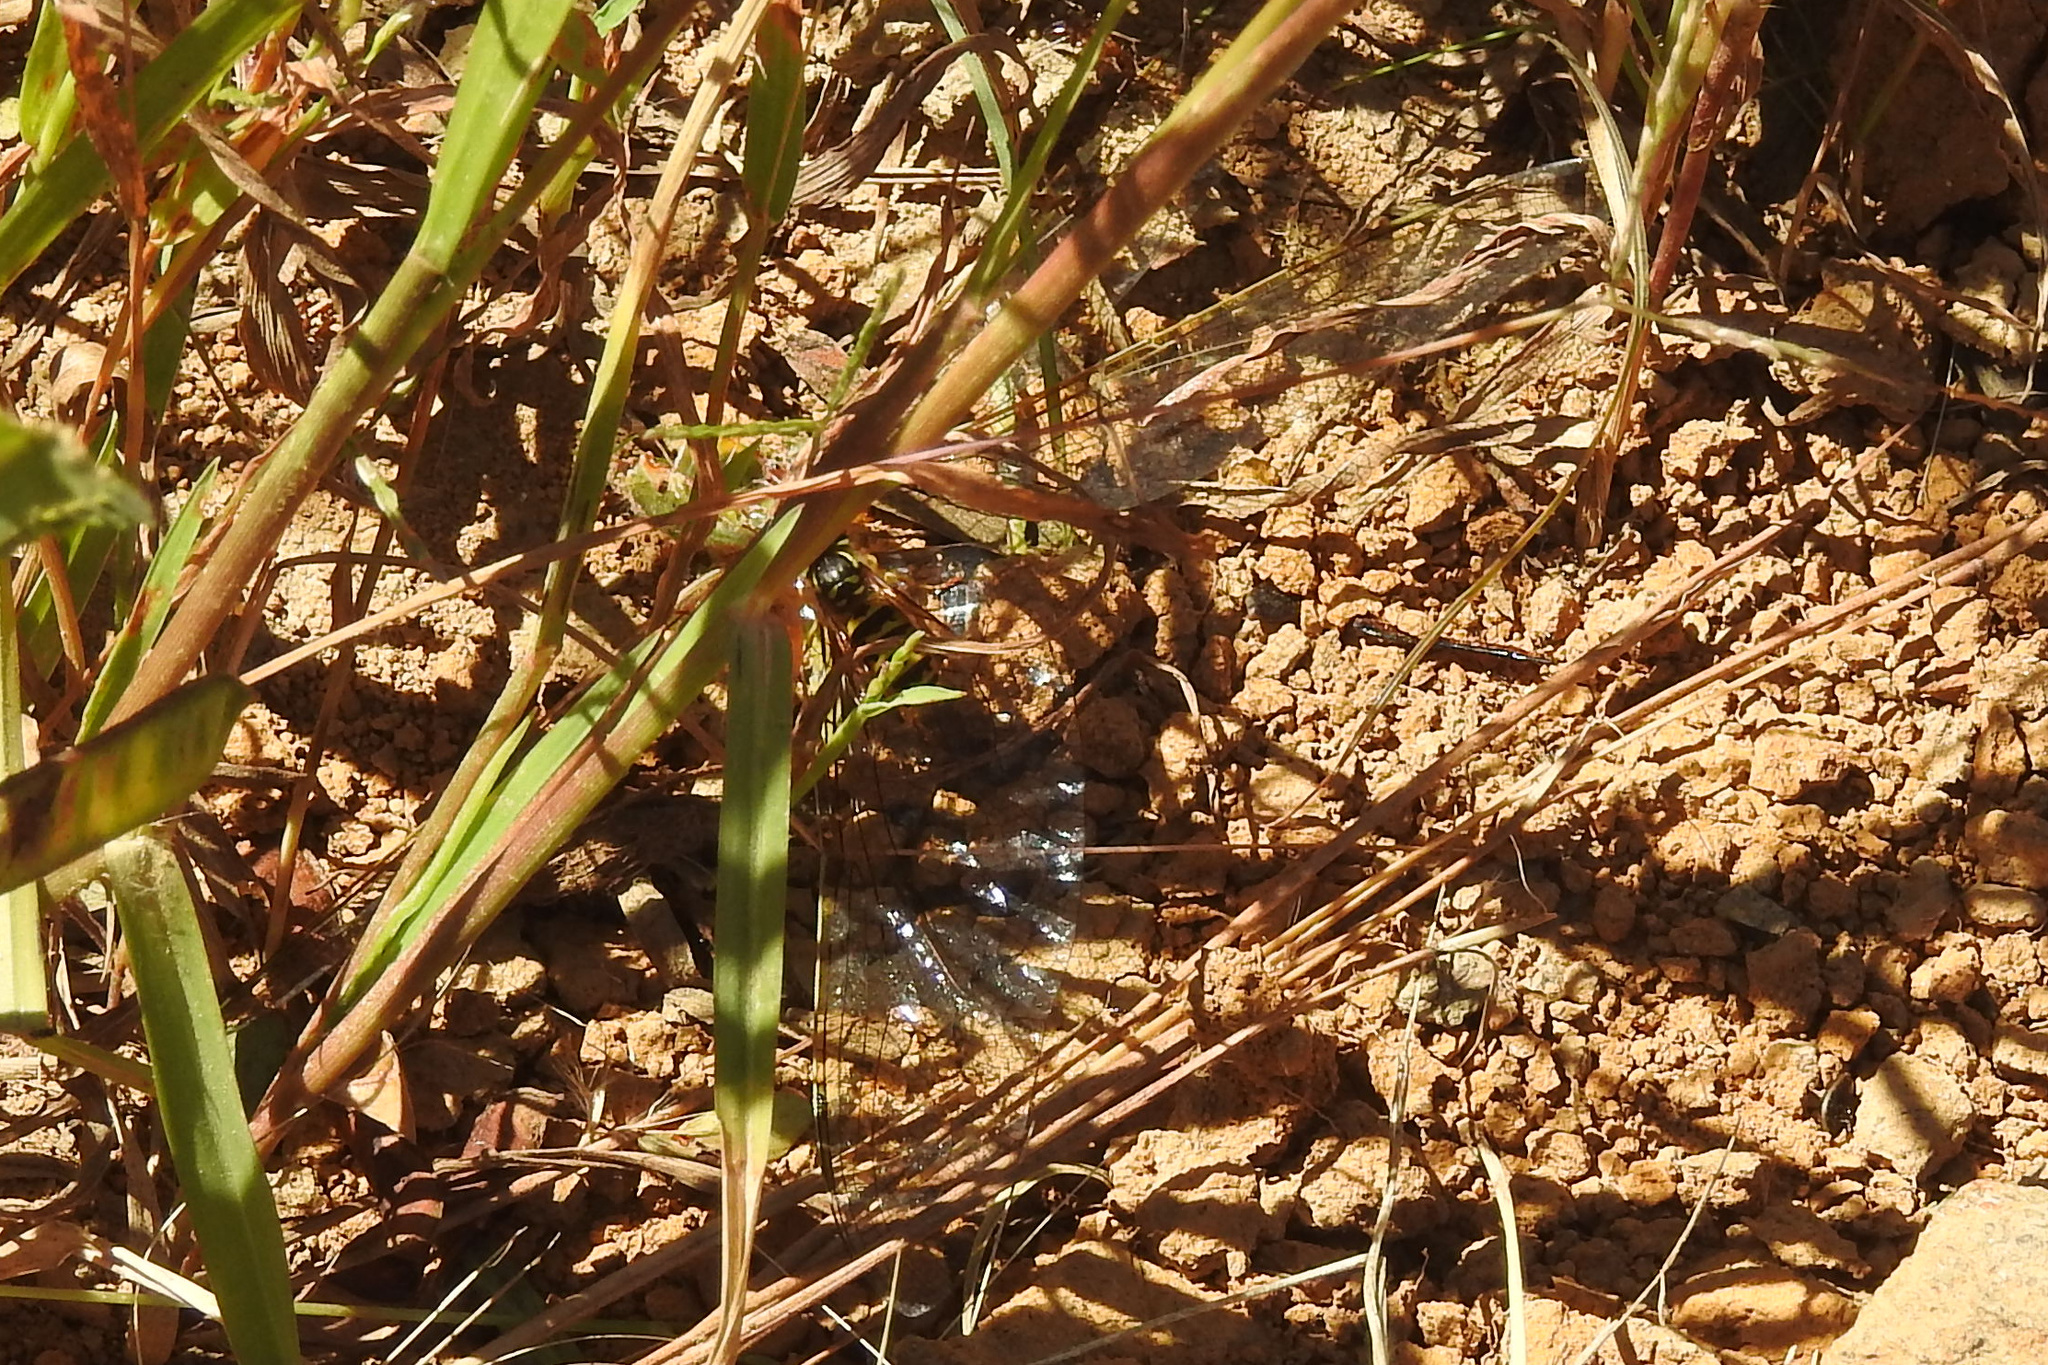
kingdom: Animalia
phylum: Arthropoda
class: Insecta
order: Hymenoptera
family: Vespidae
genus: Vespula
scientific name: Vespula flavopilosa
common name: Downy yellowjacket
